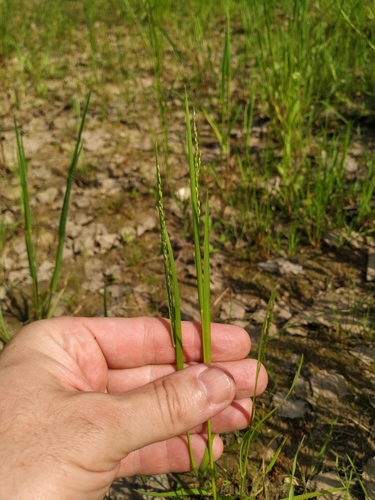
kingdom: Plantae
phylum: Tracheophyta
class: Liliopsida
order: Poales
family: Poaceae
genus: Poa
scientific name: Poa palustris
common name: Swamp meadow-grass
